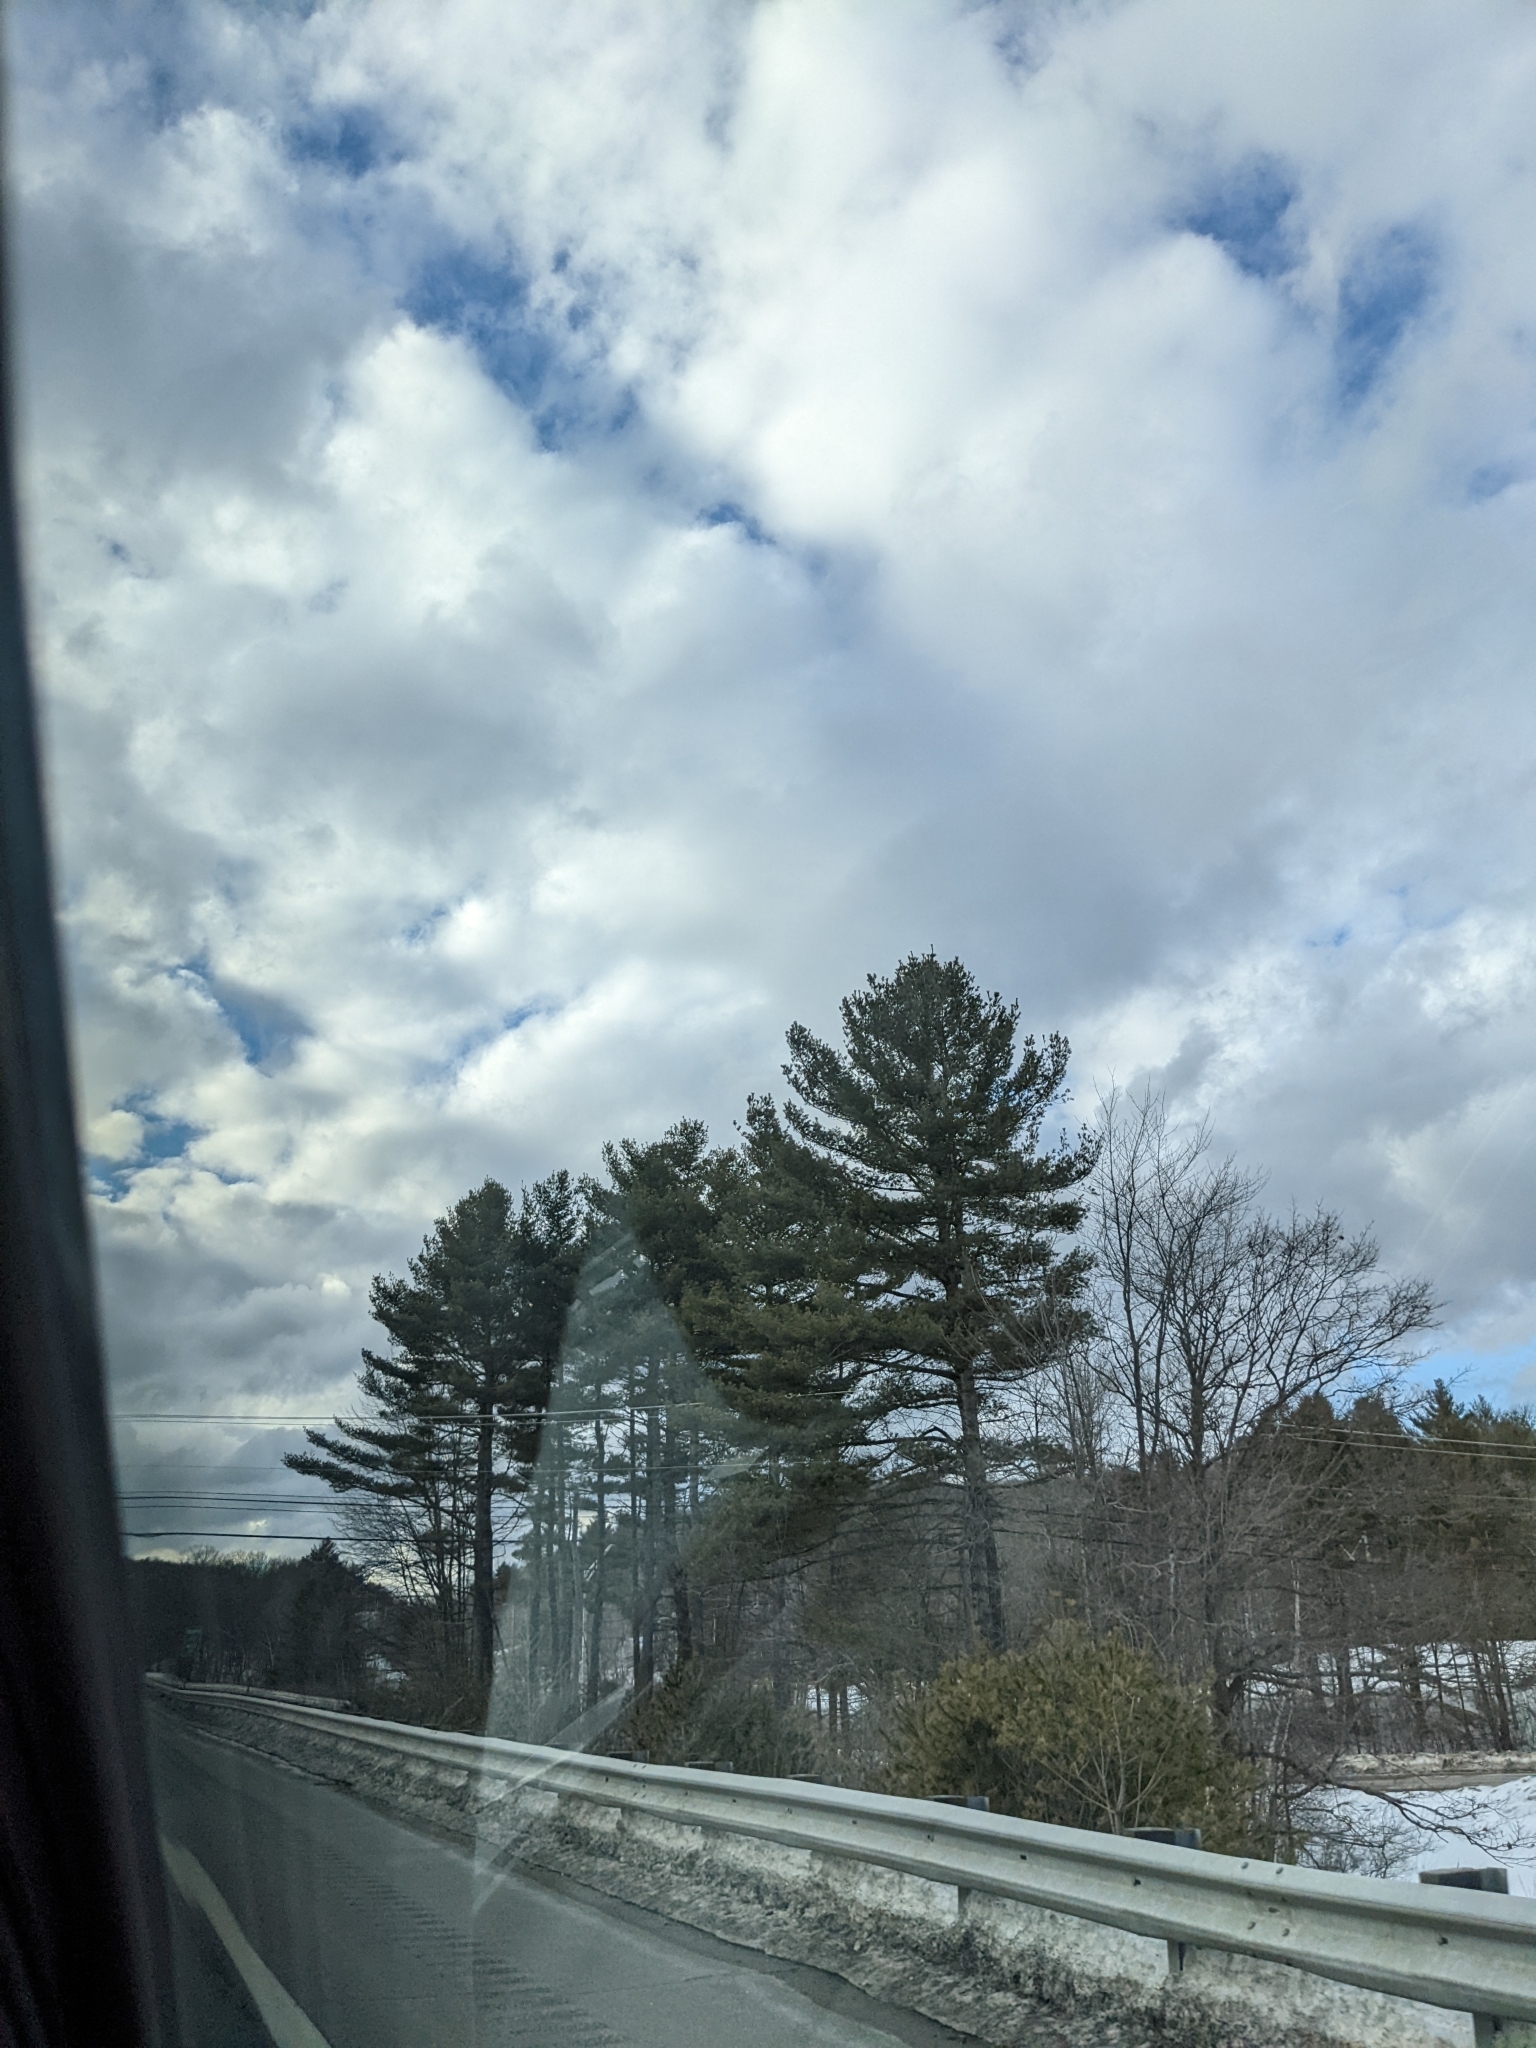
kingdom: Plantae
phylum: Tracheophyta
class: Pinopsida
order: Pinales
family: Pinaceae
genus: Pinus
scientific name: Pinus strobus
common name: Weymouth pine
